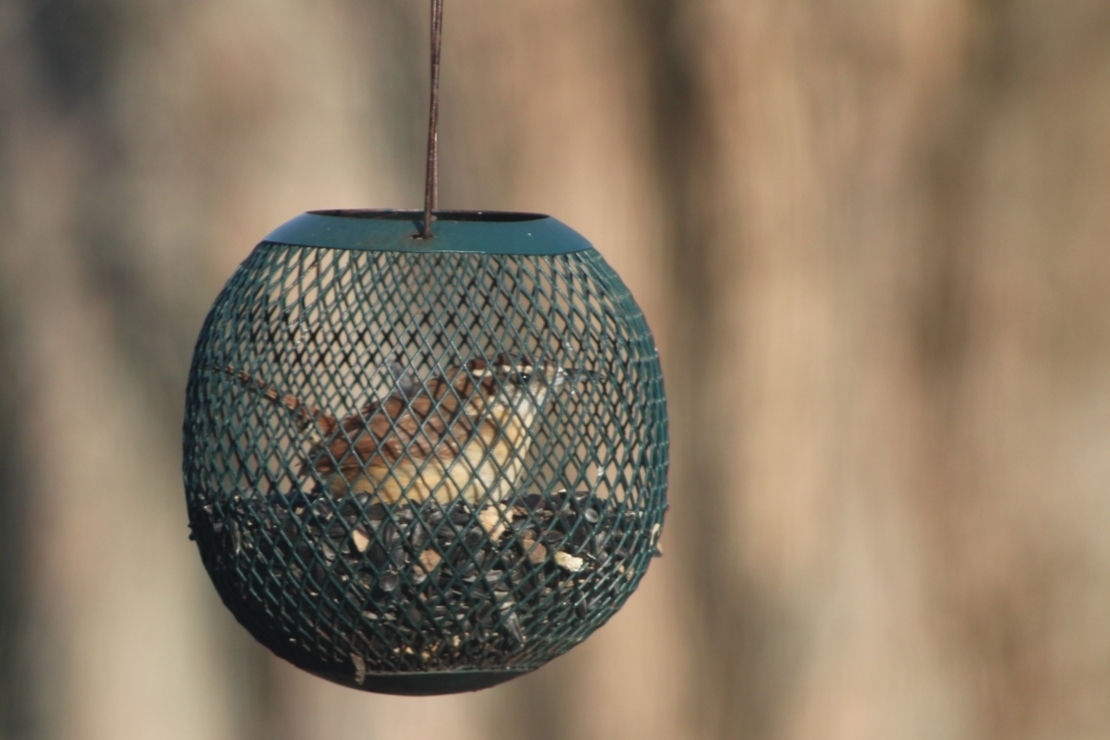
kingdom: Animalia
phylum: Chordata
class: Aves
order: Passeriformes
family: Troglodytidae
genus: Thryothorus
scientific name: Thryothorus ludovicianus
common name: Carolina wren
